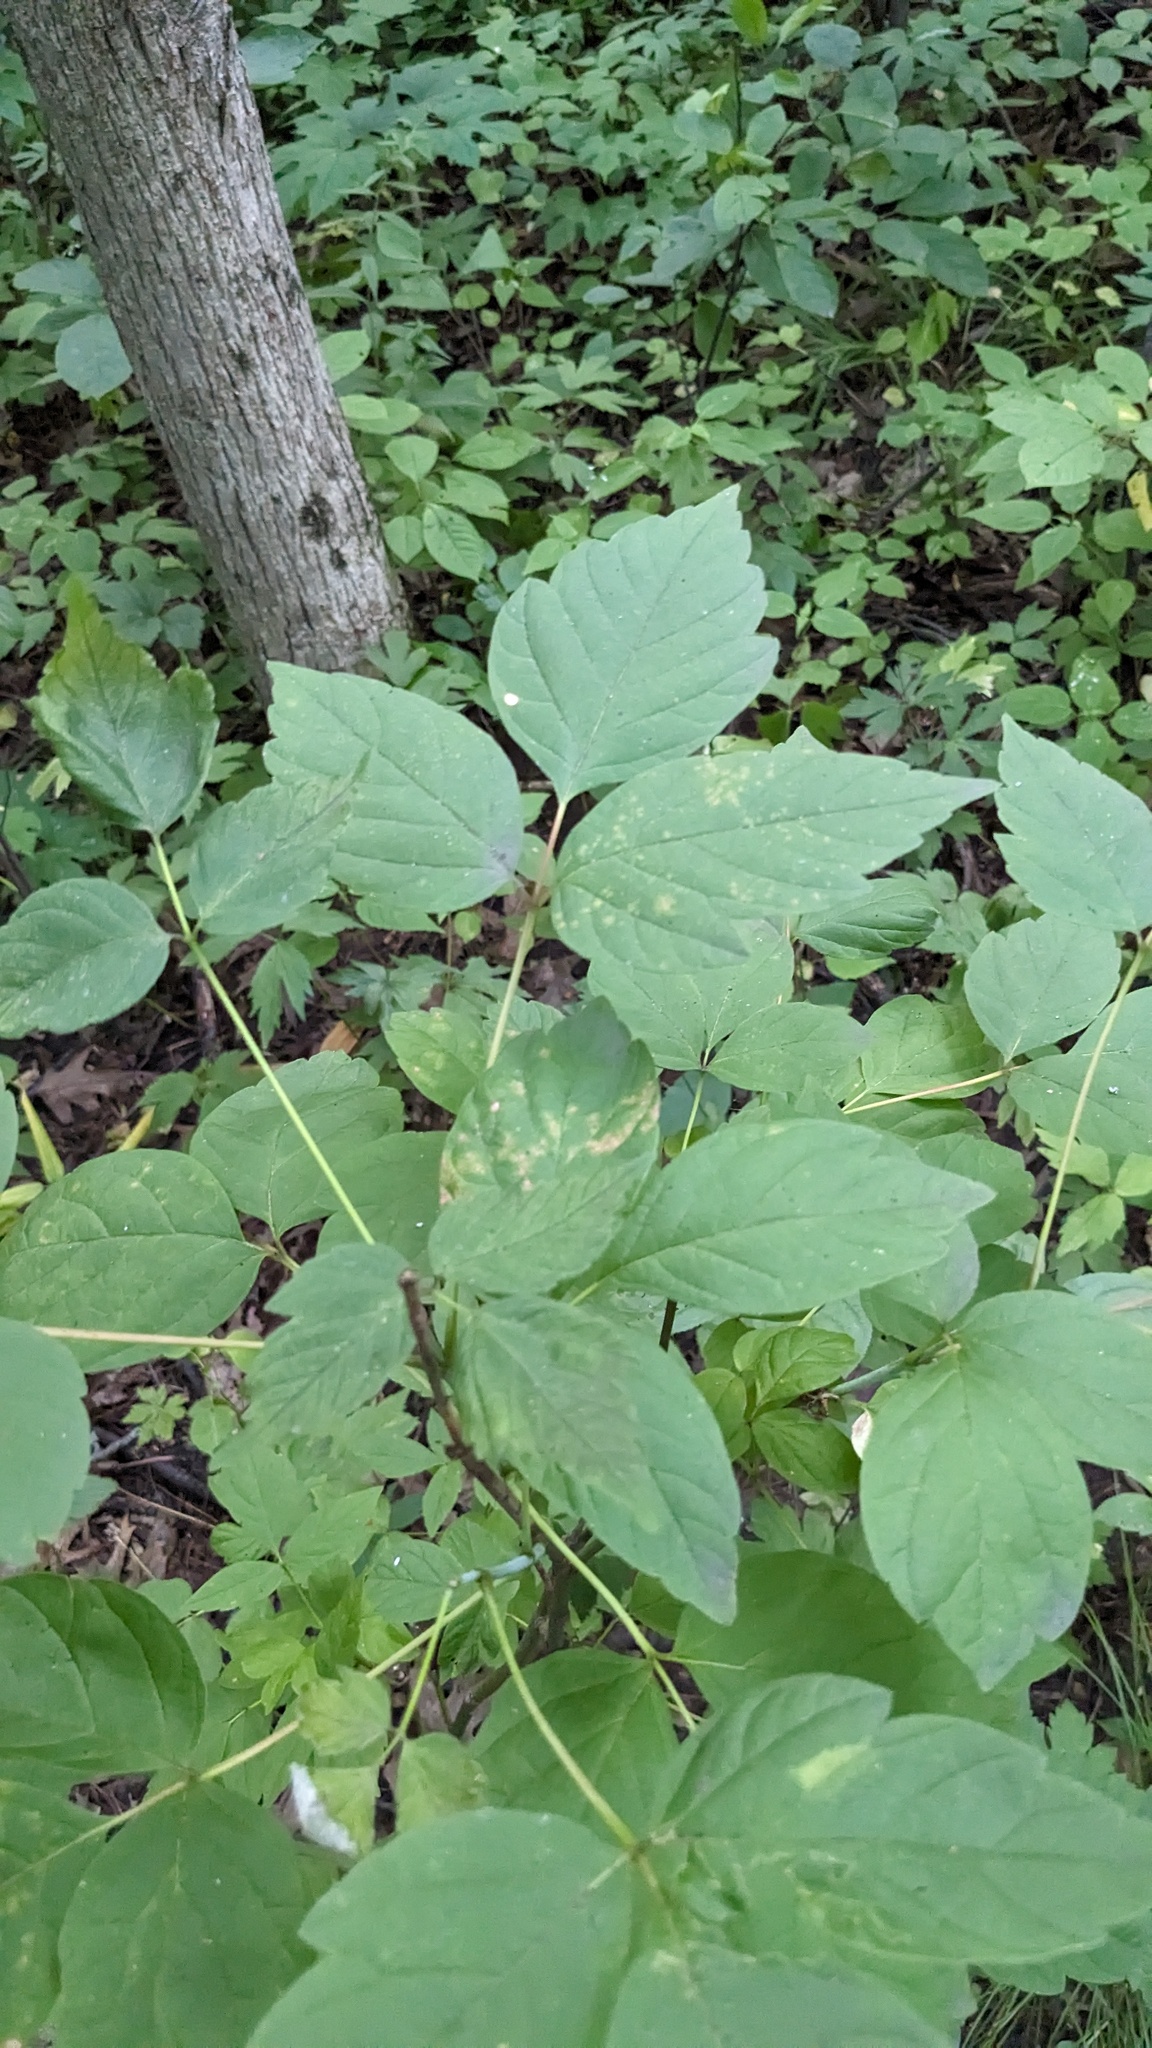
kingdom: Plantae
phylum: Tracheophyta
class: Magnoliopsida
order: Sapindales
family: Sapindaceae
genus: Acer
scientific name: Acer negundo
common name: Ashleaf maple
